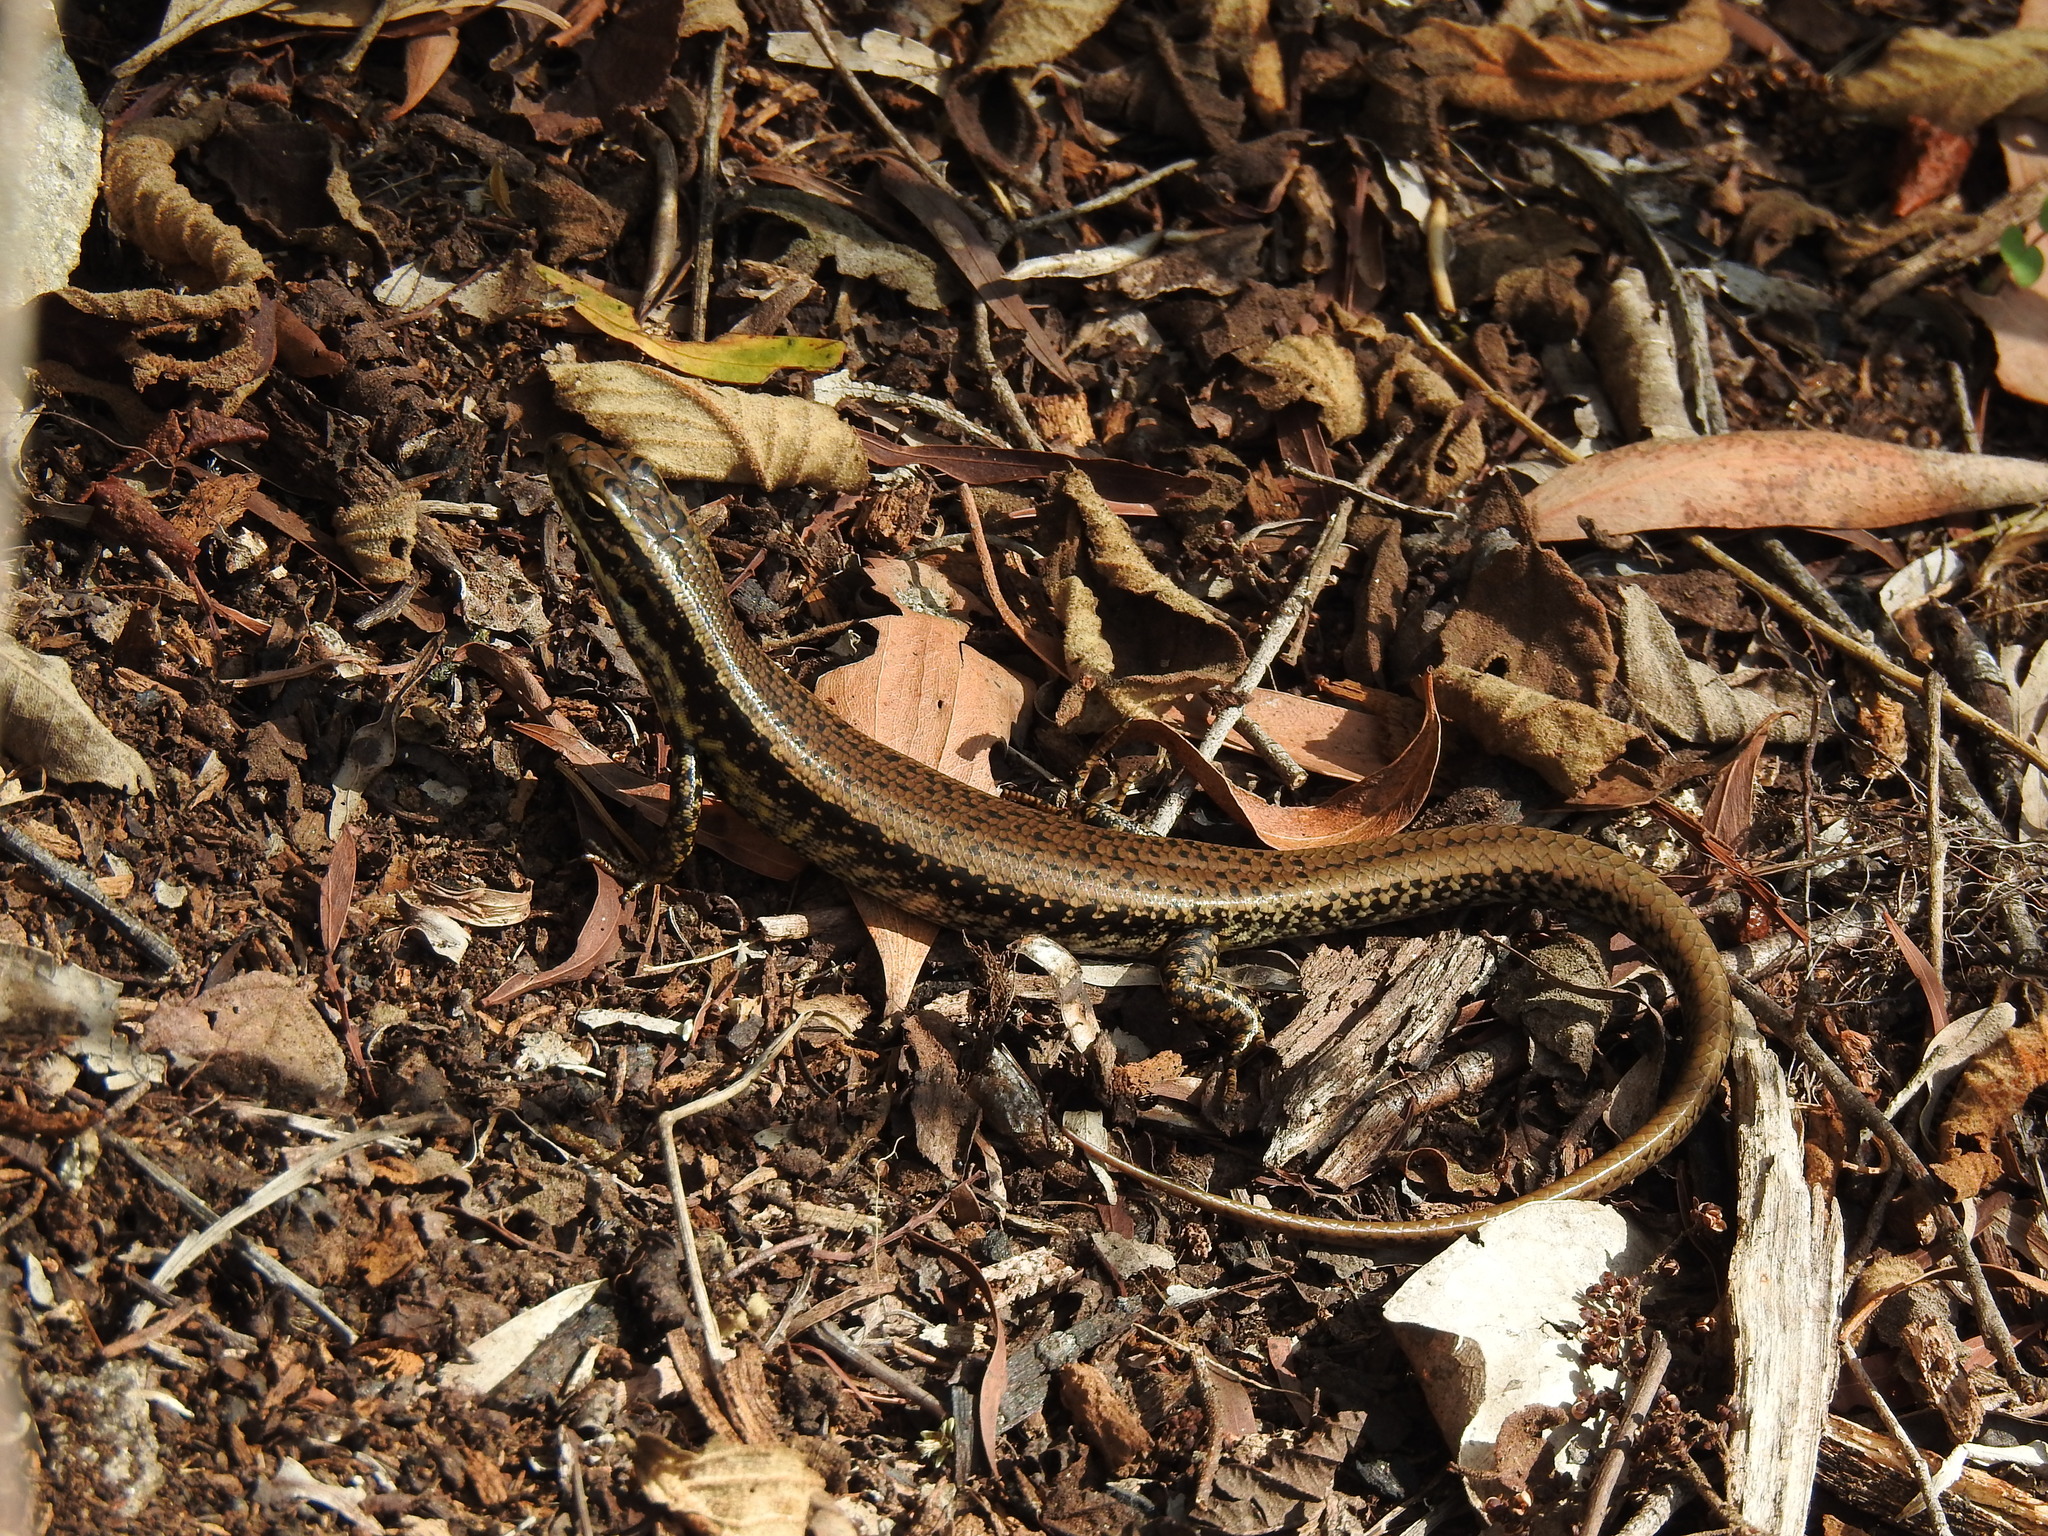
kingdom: Animalia
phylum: Chordata
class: Squamata
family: Scincidae
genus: Eulamprus
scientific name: Eulamprus heatwolei
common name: Warm-temperate water-skink
